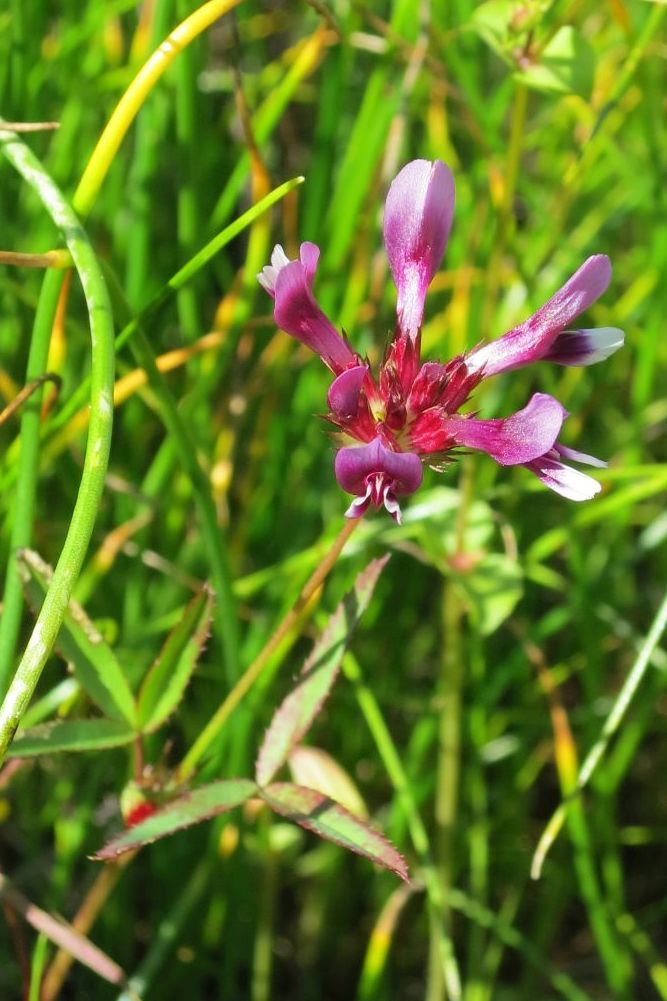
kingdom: Plantae
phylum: Tracheophyta
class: Magnoliopsida
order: Fabales
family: Fabaceae
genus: Trifolium
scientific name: Trifolium willdenovii
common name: Tomcat clover
